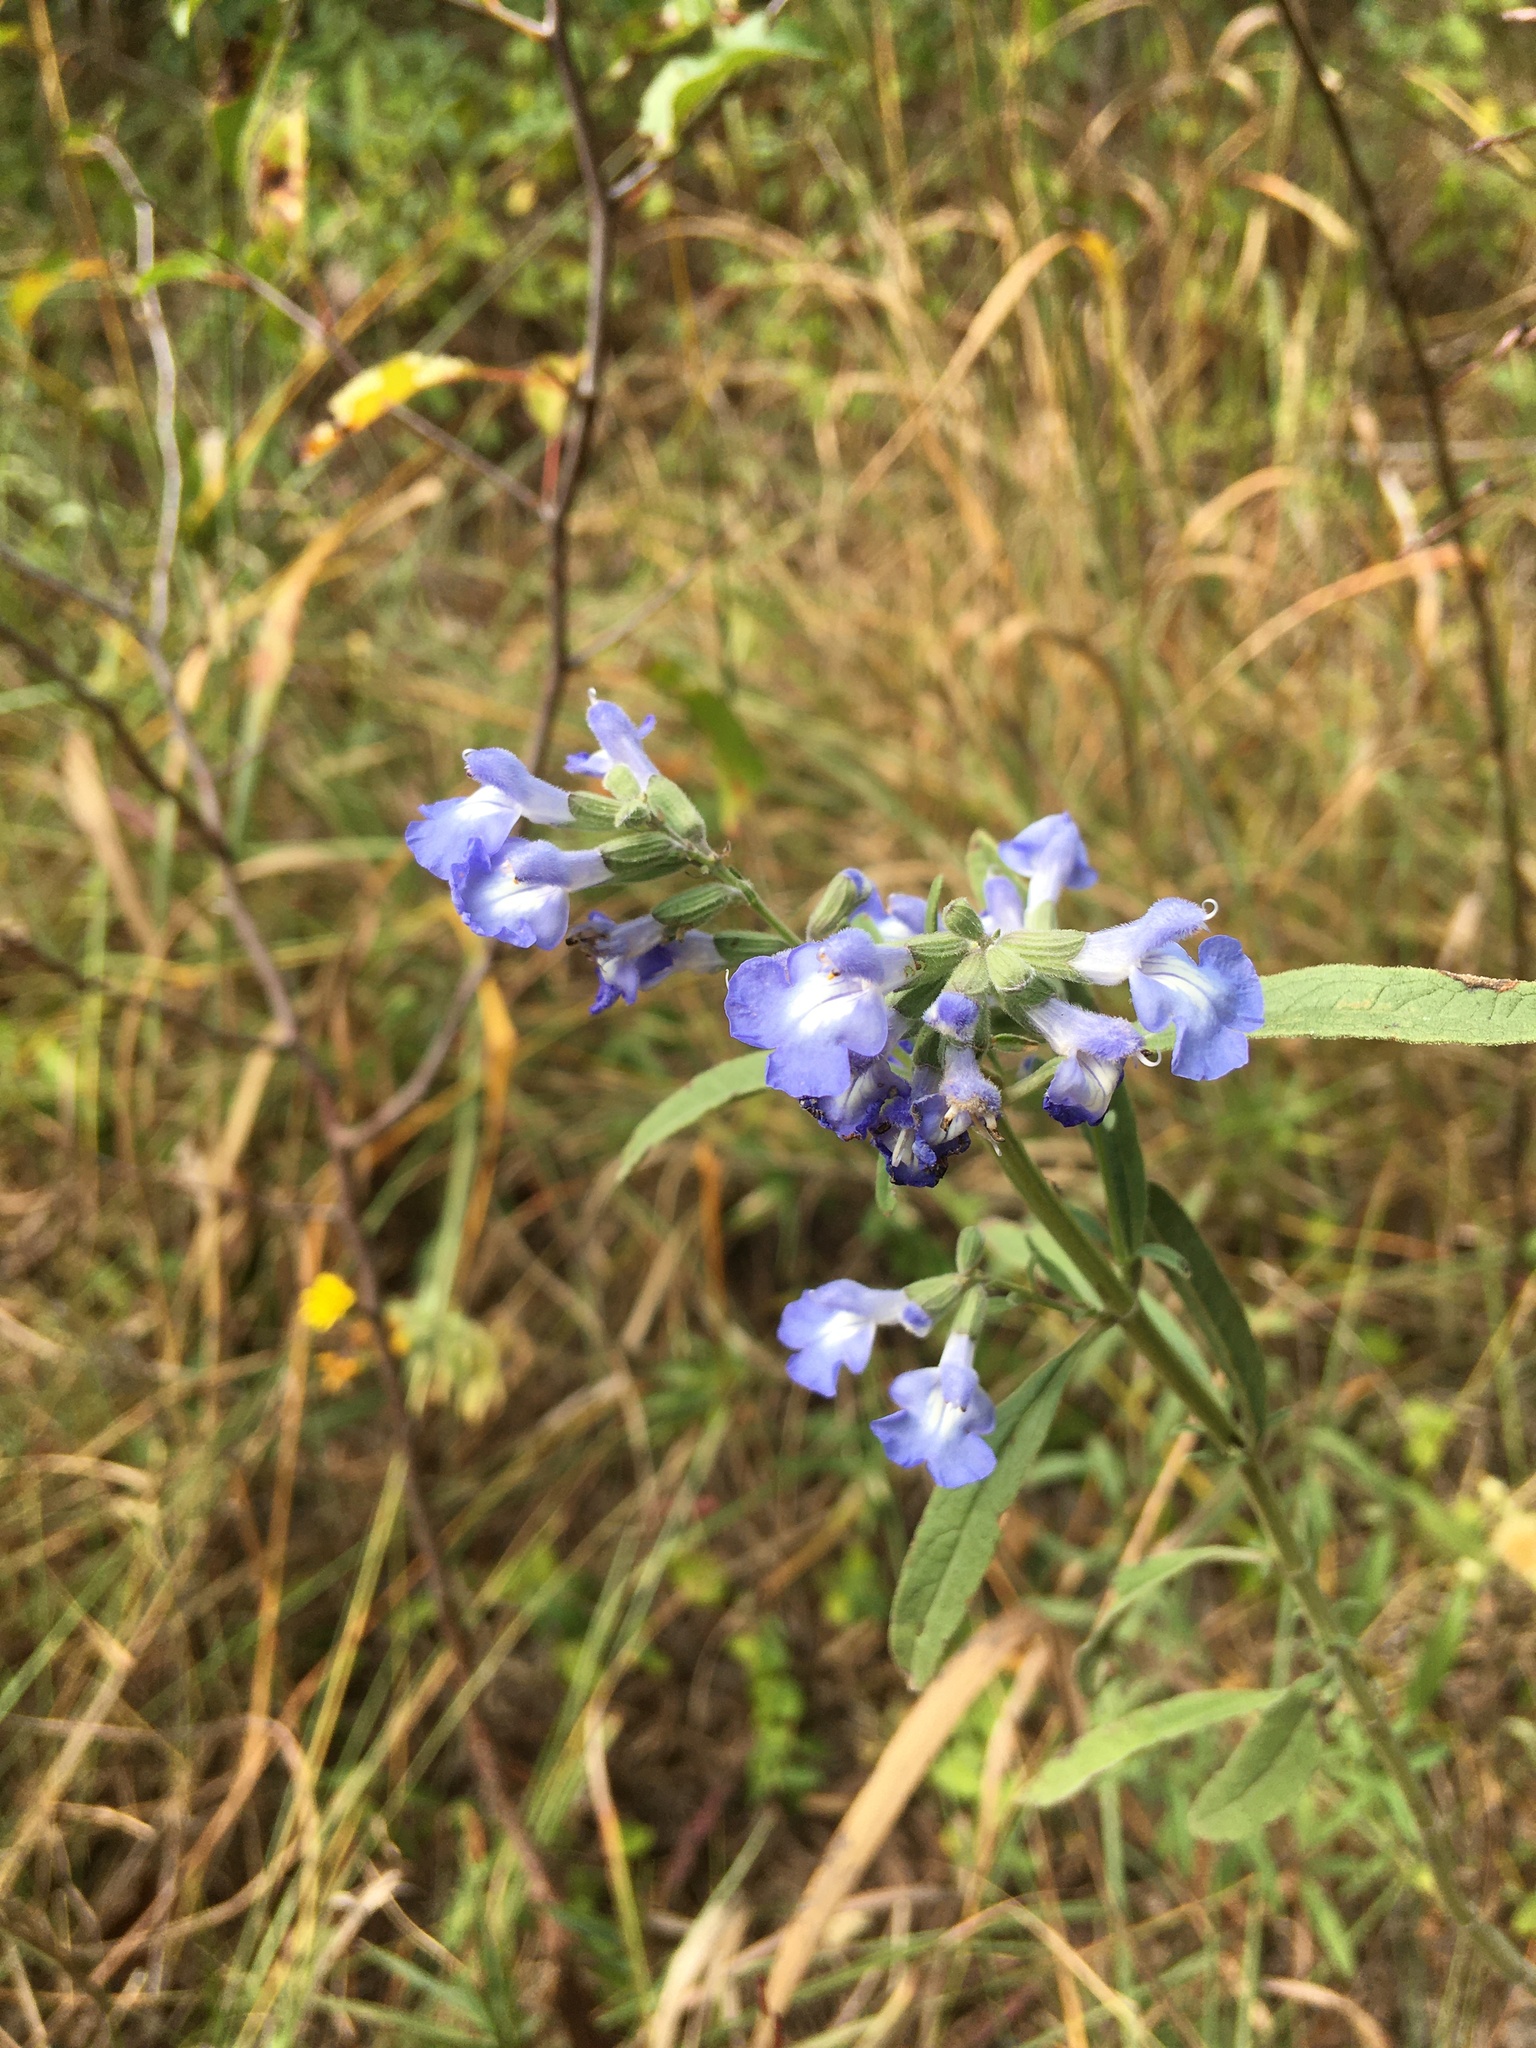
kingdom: Plantae
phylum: Tracheophyta
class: Magnoliopsida
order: Lamiales
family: Lamiaceae
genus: Salvia
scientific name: Salvia azurea
